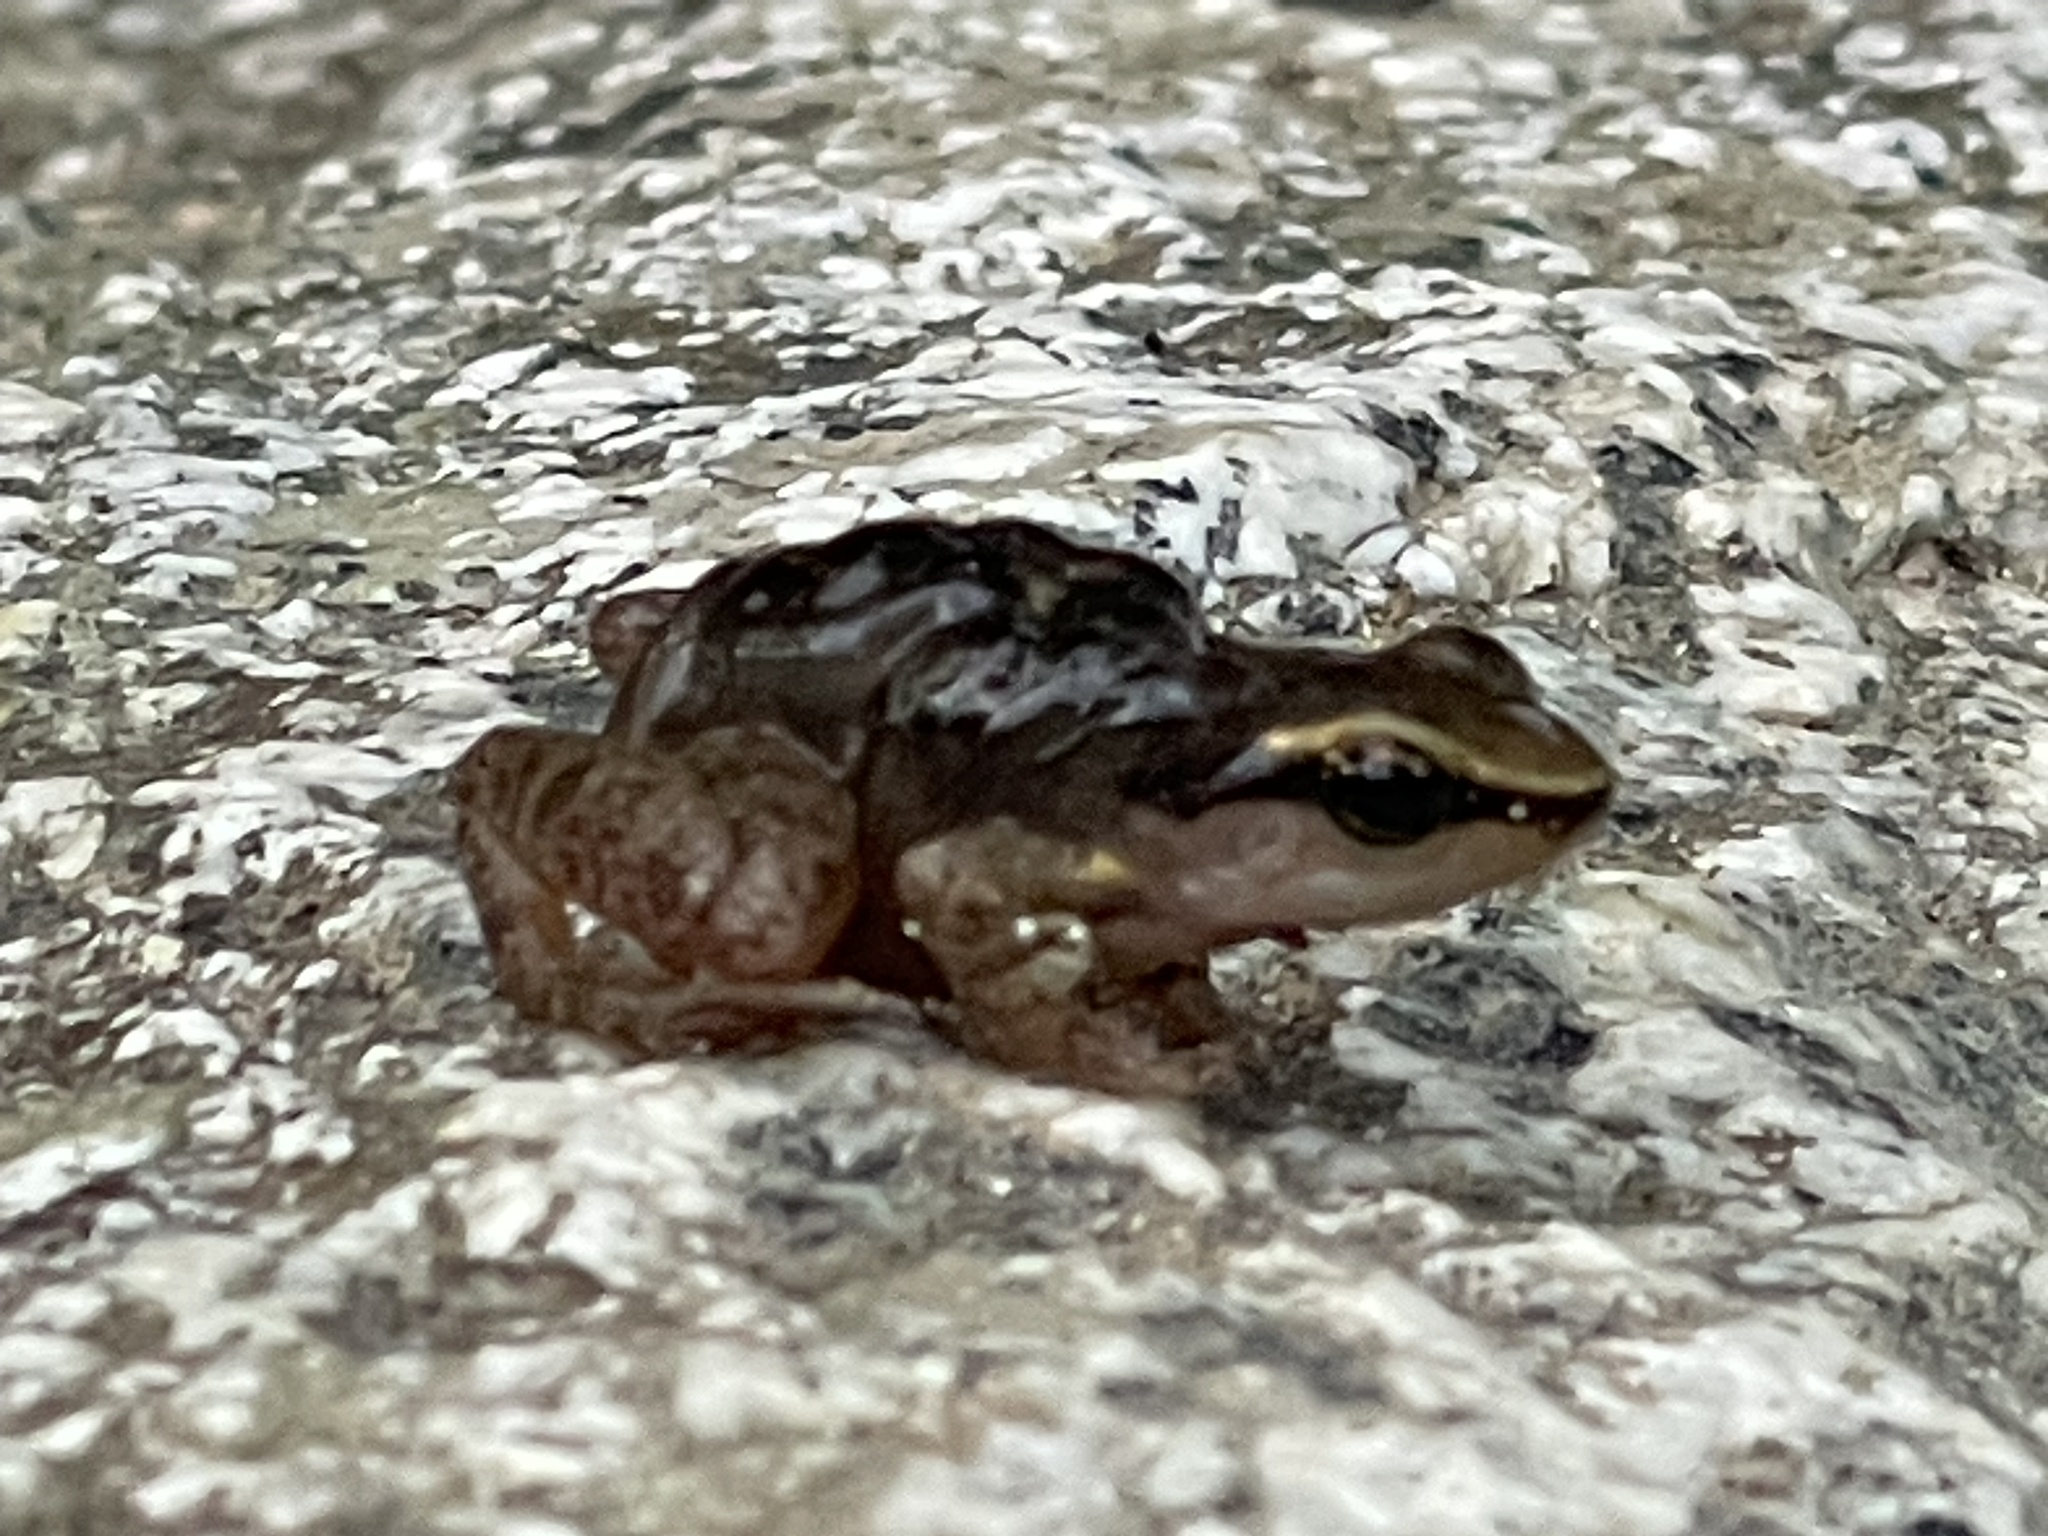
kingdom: Animalia
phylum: Chordata
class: Amphibia
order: Anura
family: Dendrobatidae
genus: Colostethus
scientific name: Colostethus ruthveni
